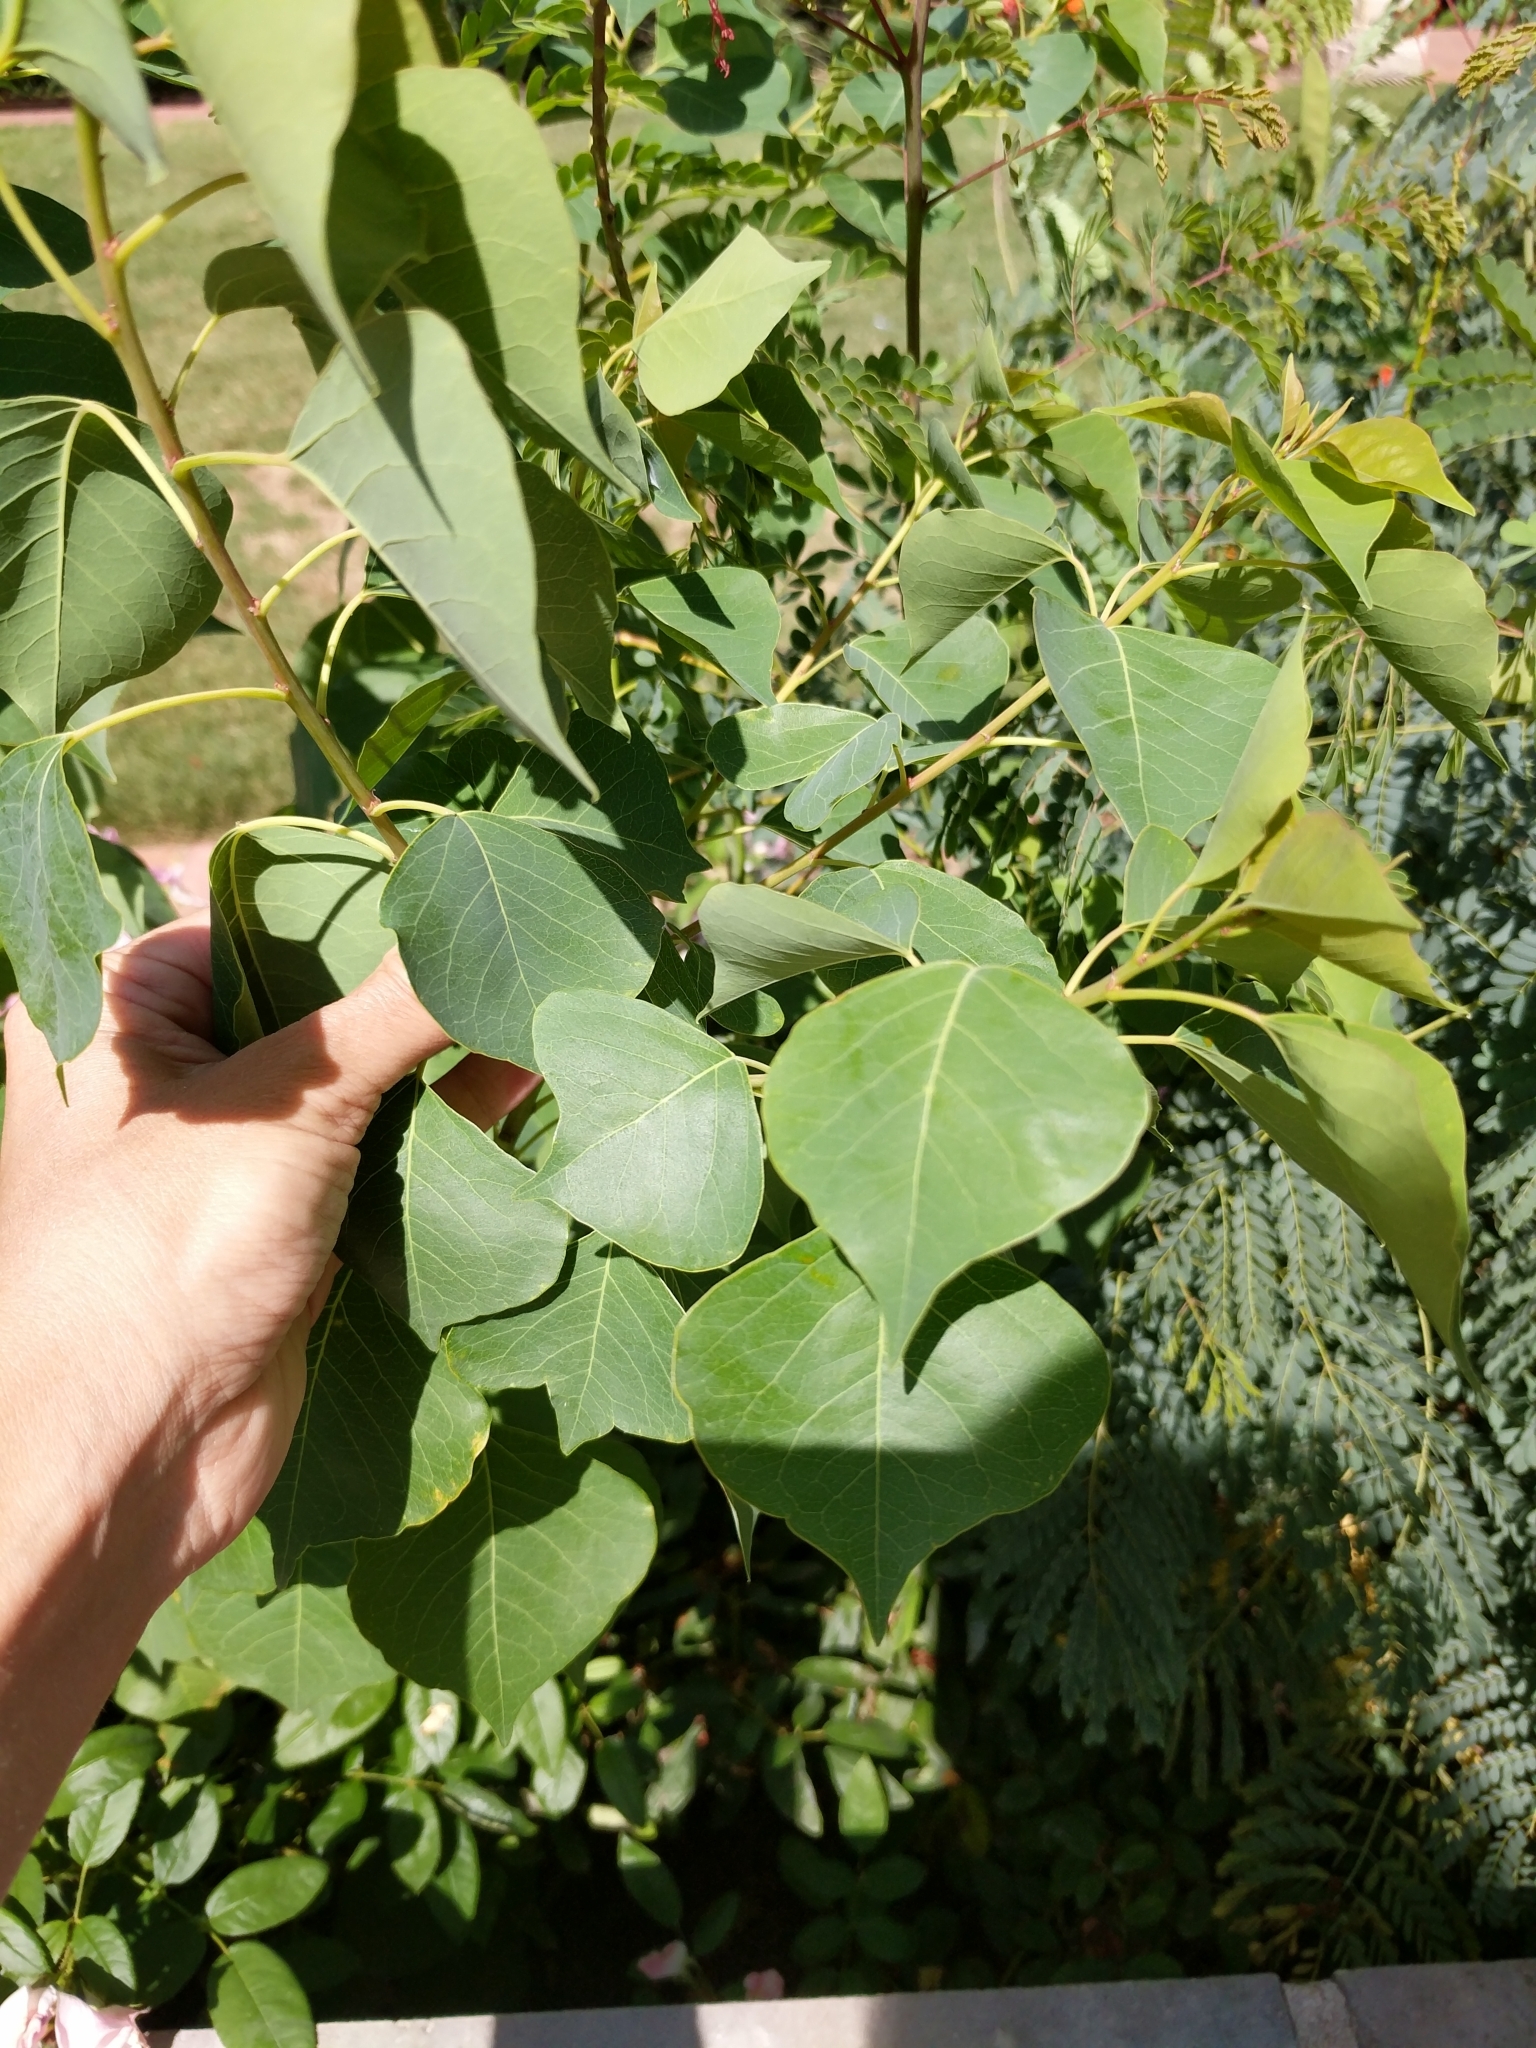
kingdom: Plantae
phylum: Tracheophyta
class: Magnoliopsida
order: Malpighiales
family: Euphorbiaceae
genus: Triadica
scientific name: Triadica sebifera
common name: Chinese tallow
